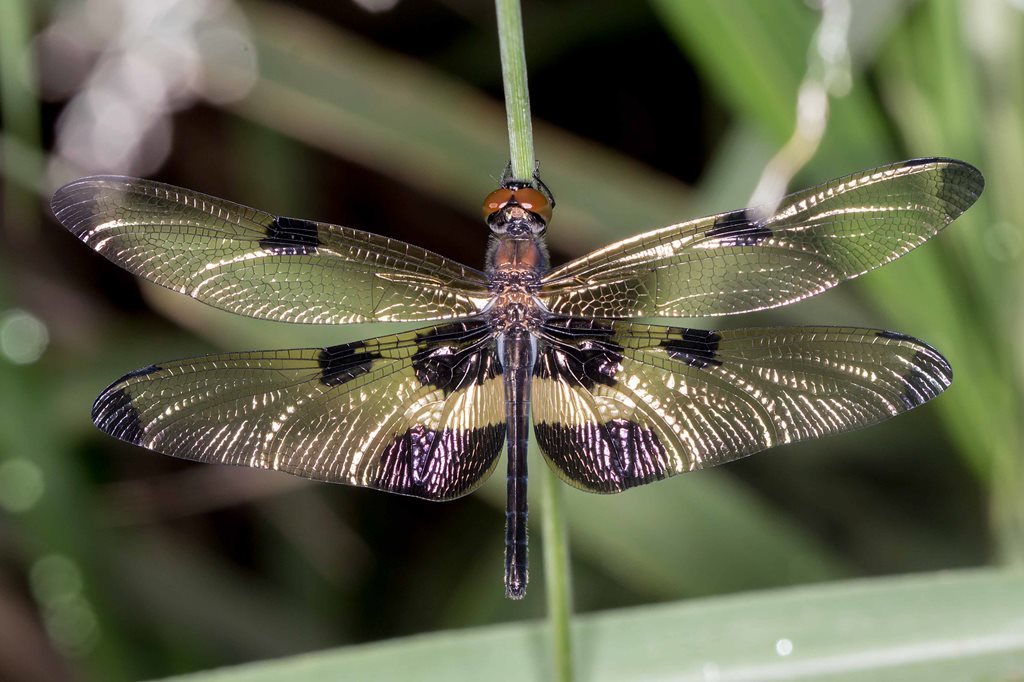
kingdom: Animalia
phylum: Arthropoda
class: Insecta
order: Odonata
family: Libellulidae
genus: Rhyothemis
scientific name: Rhyothemis phyllis
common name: Yellow-barred flutterer
